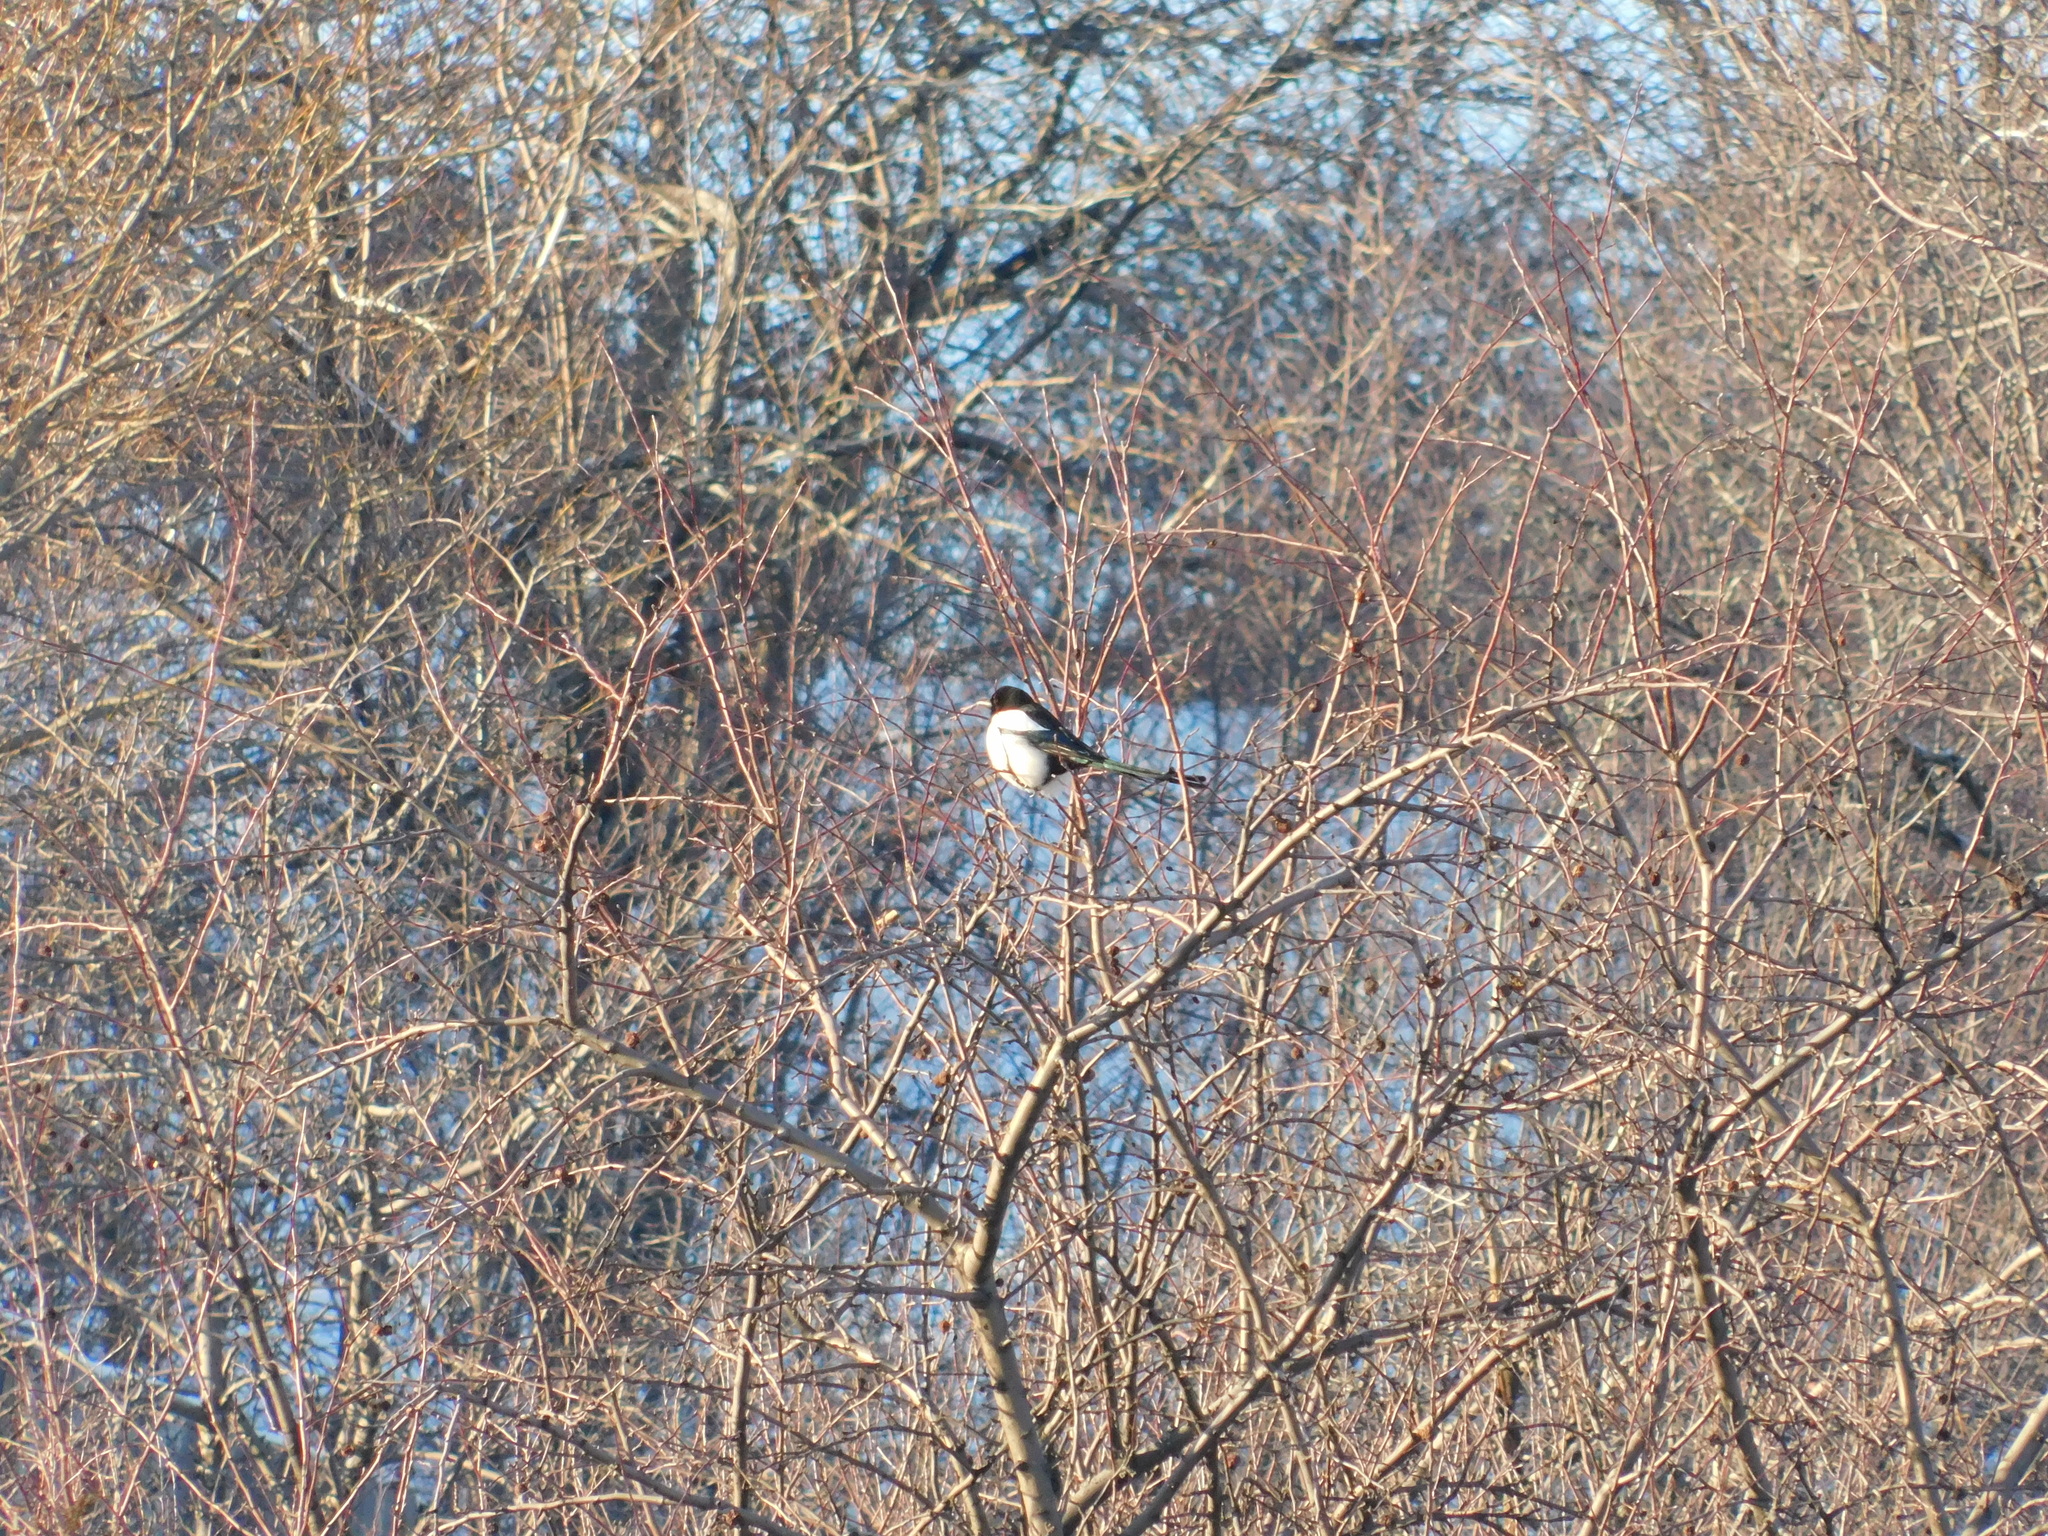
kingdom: Animalia
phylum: Chordata
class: Aves
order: Passeriformes
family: Corvidae
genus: Pica
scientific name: Pica pica
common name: Eurasian magpie
